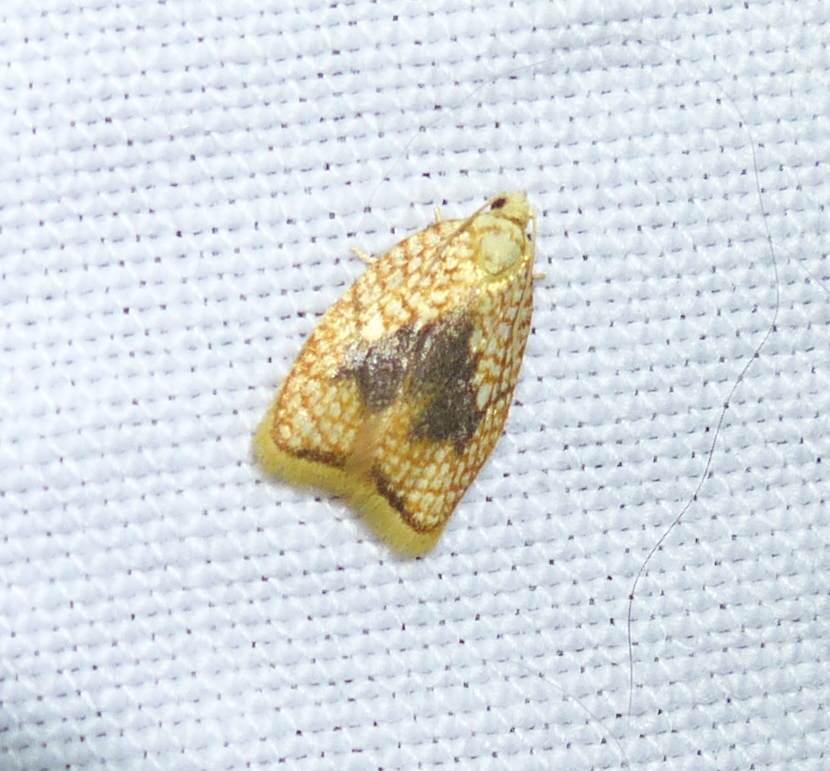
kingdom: Animalia
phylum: Arthropoda
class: Insecta
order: Lepidoptera
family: Tortricidae
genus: Acleris
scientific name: Acleris forsskaleana
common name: Maple button
